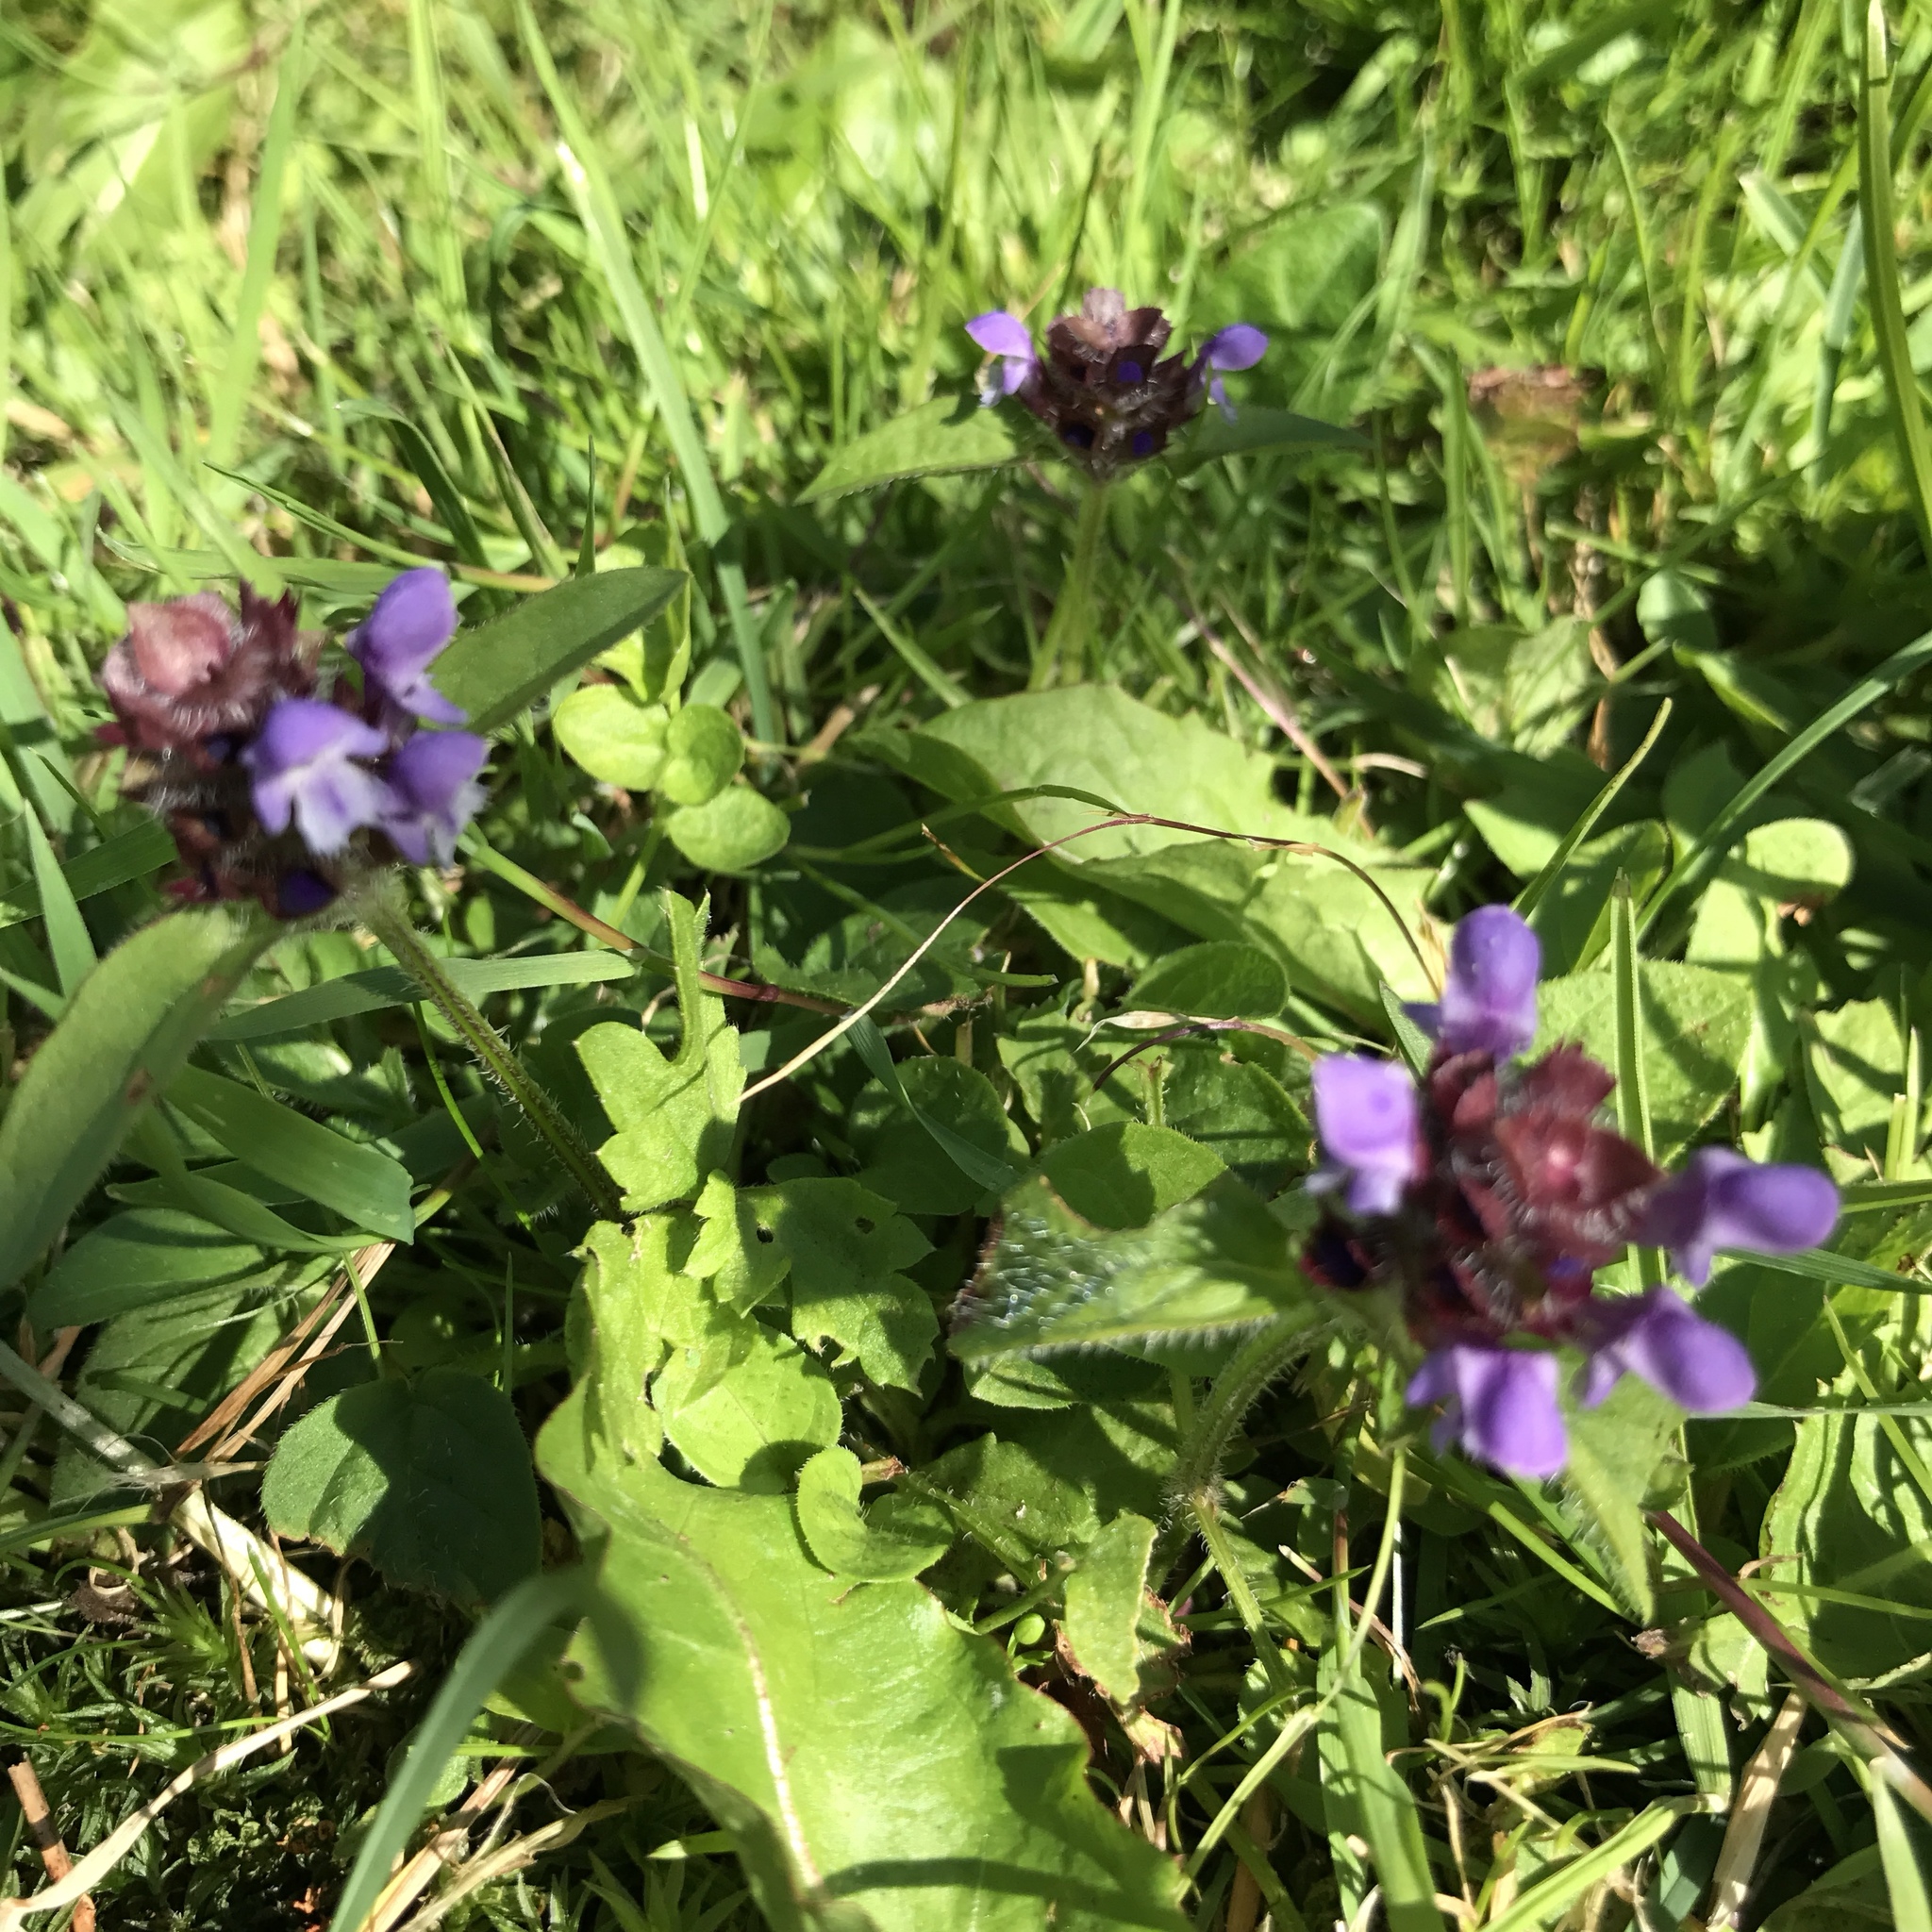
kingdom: Plantae
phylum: Tracheophyta
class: Magnoliopsida
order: Lamiales
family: Lamiaceae
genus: Prunella
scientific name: Prunella vulgaris
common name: Heal-all
